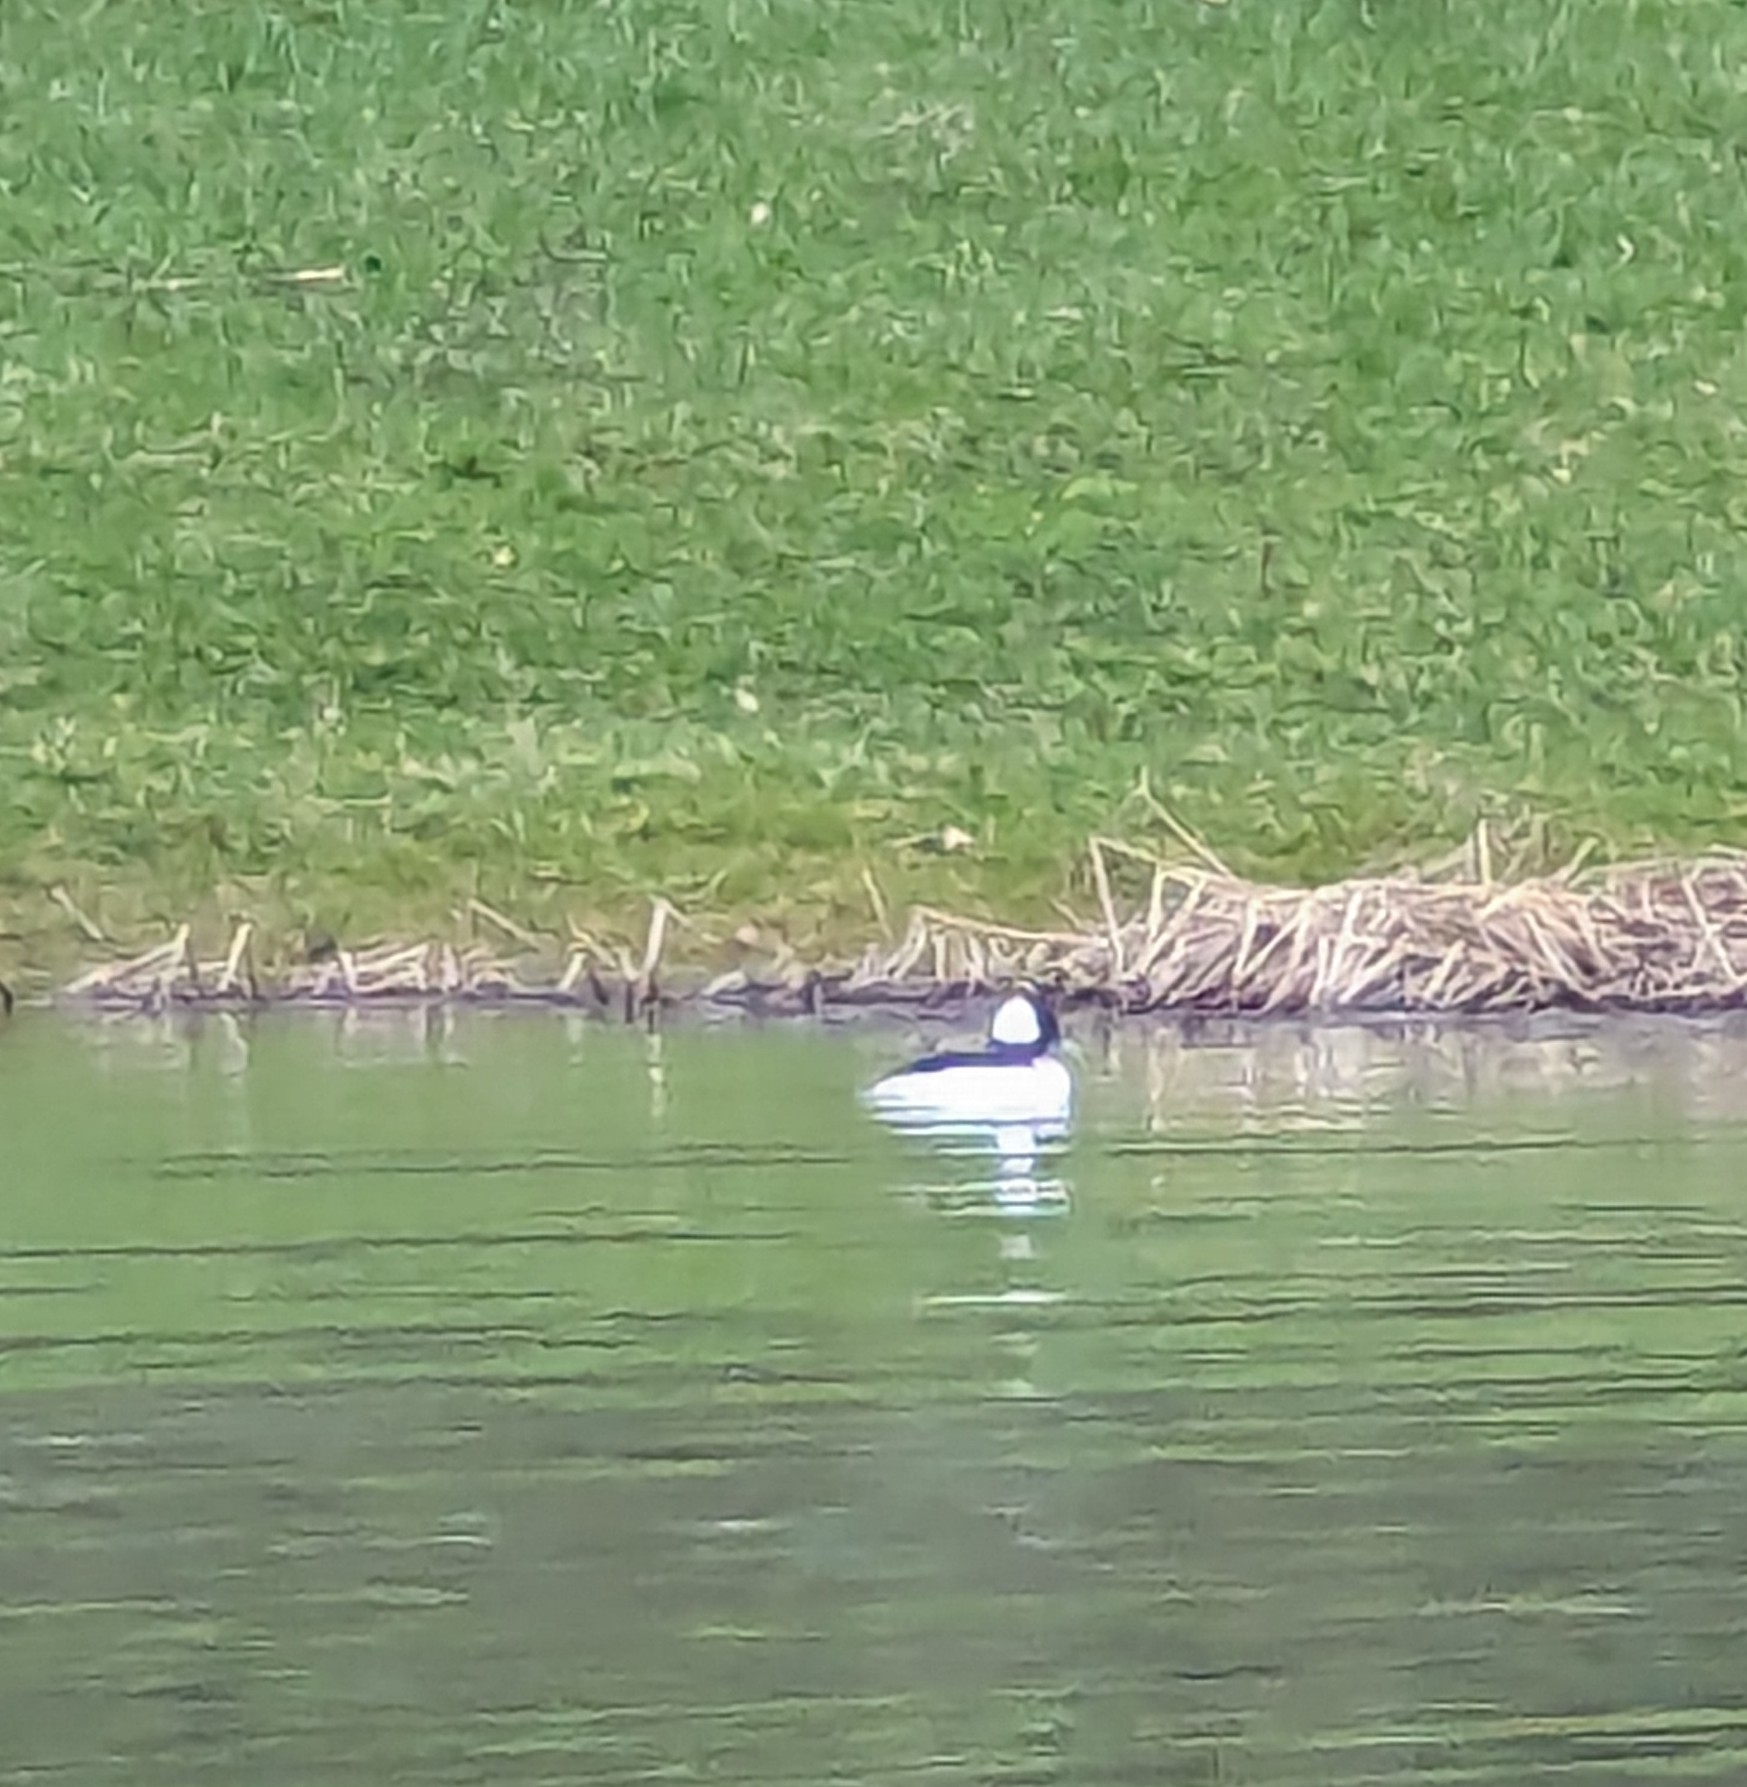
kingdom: Animalia
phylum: Chordata
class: Aves
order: Anseriformes
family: Anatidae
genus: Bucephala
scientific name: Bucephala albeola
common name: Bufflehead
